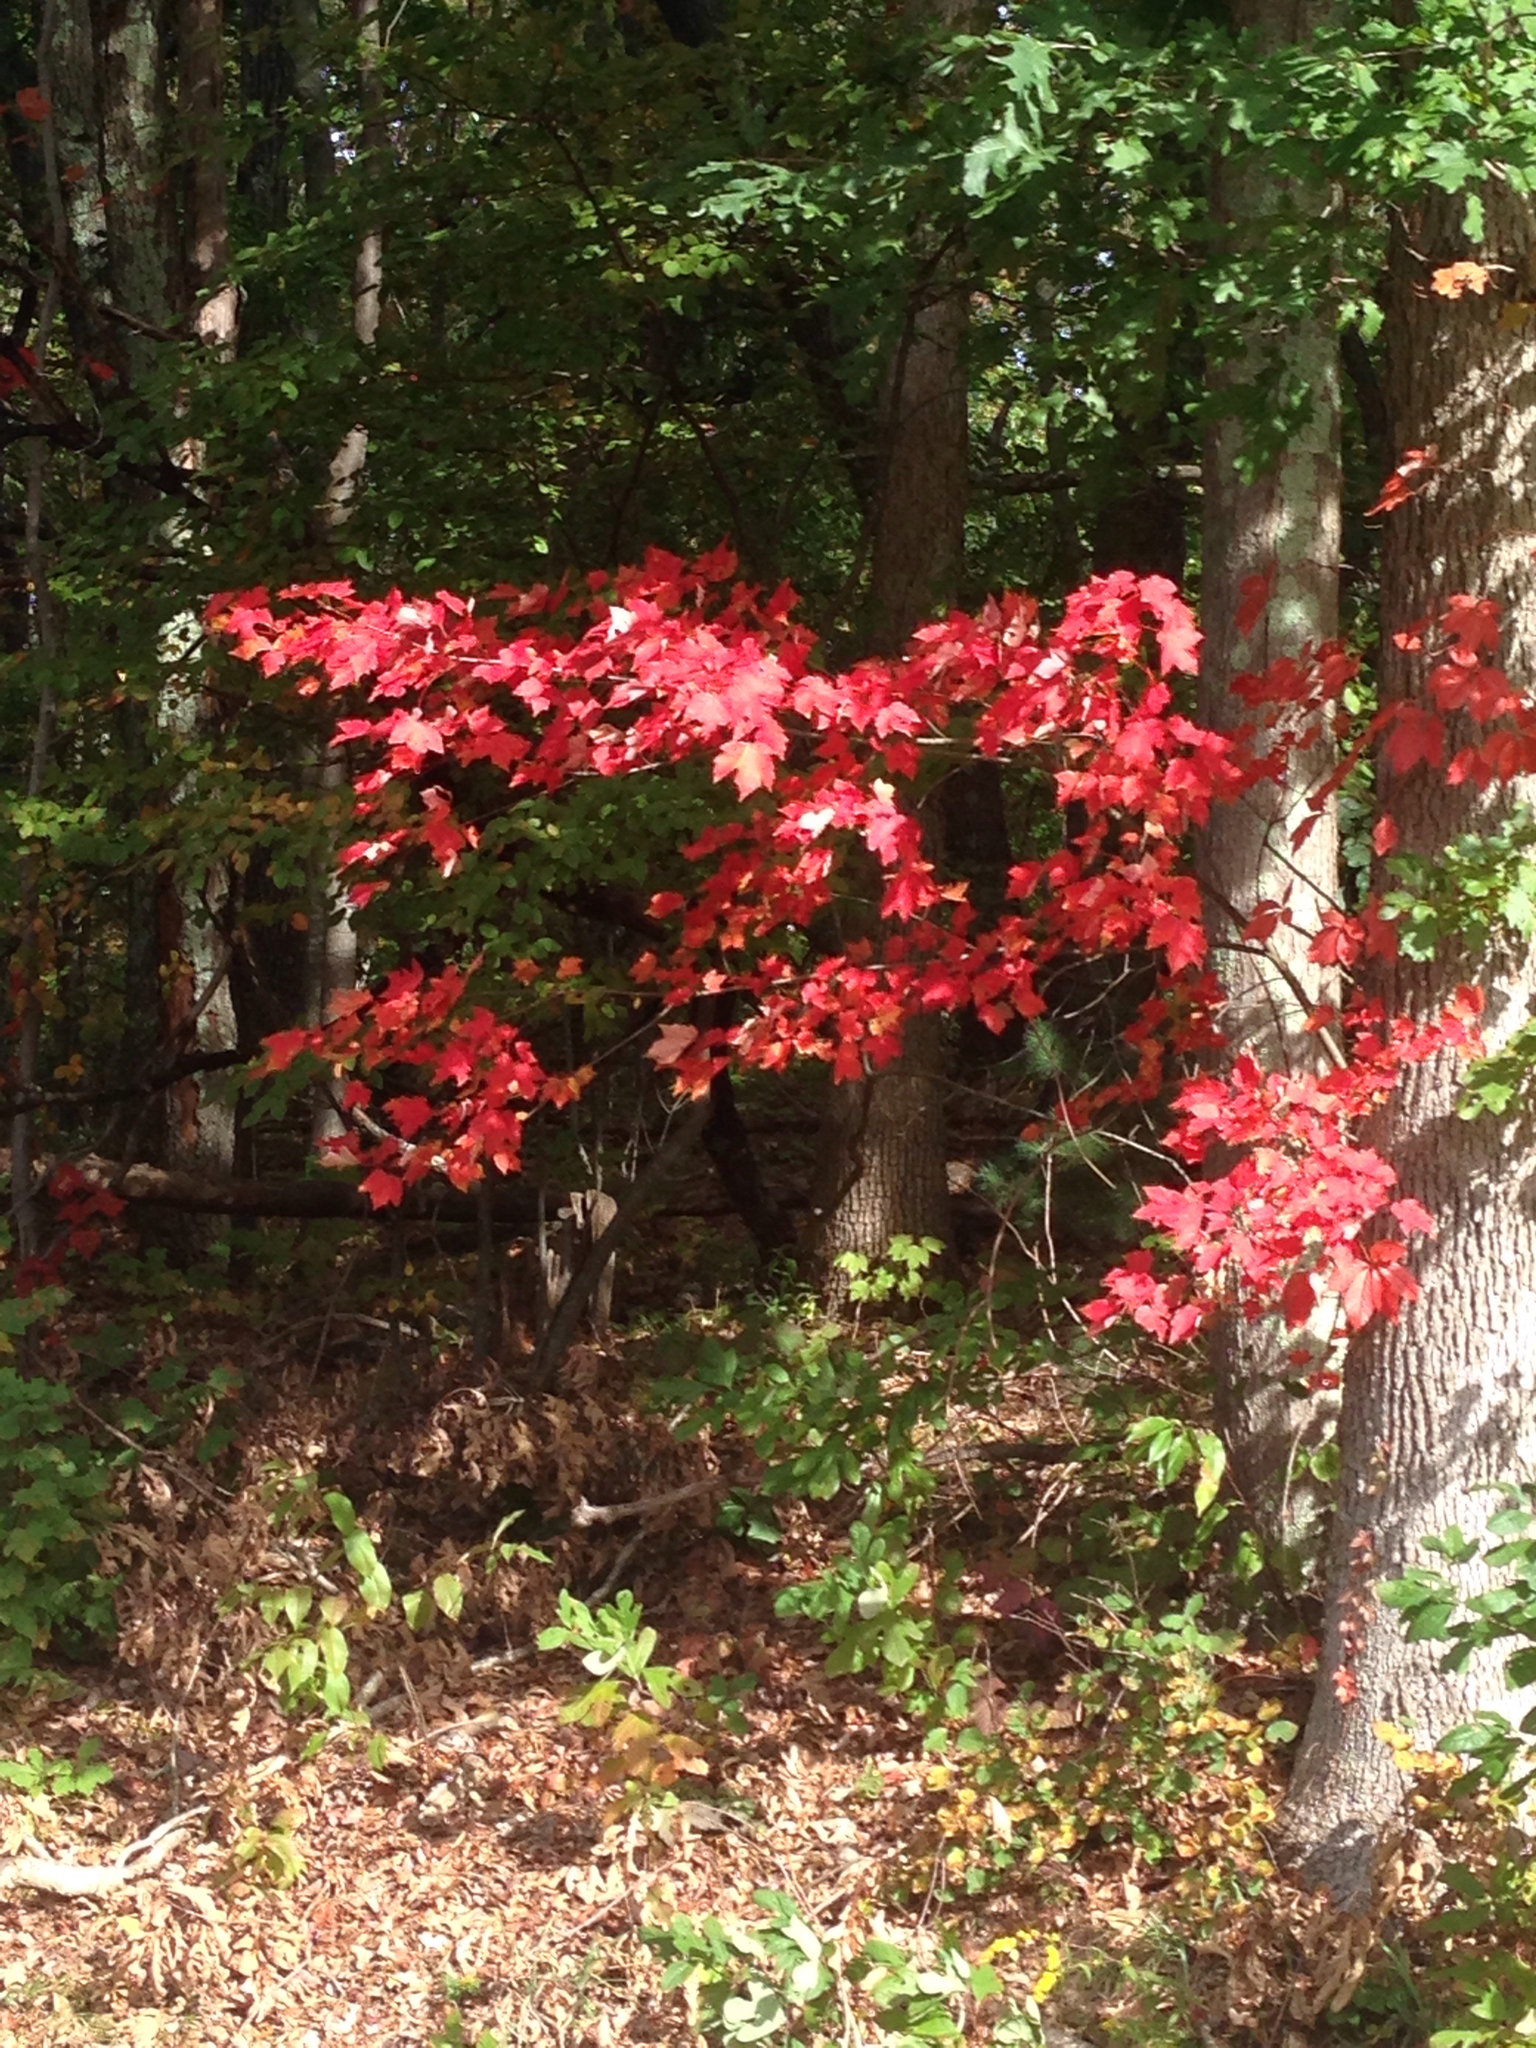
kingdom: Plantae
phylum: Tracheophyta
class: Magnoliopsida
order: Sapindales
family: Sapindaceae
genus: Acer
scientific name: Acer rubrum
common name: Red maple
